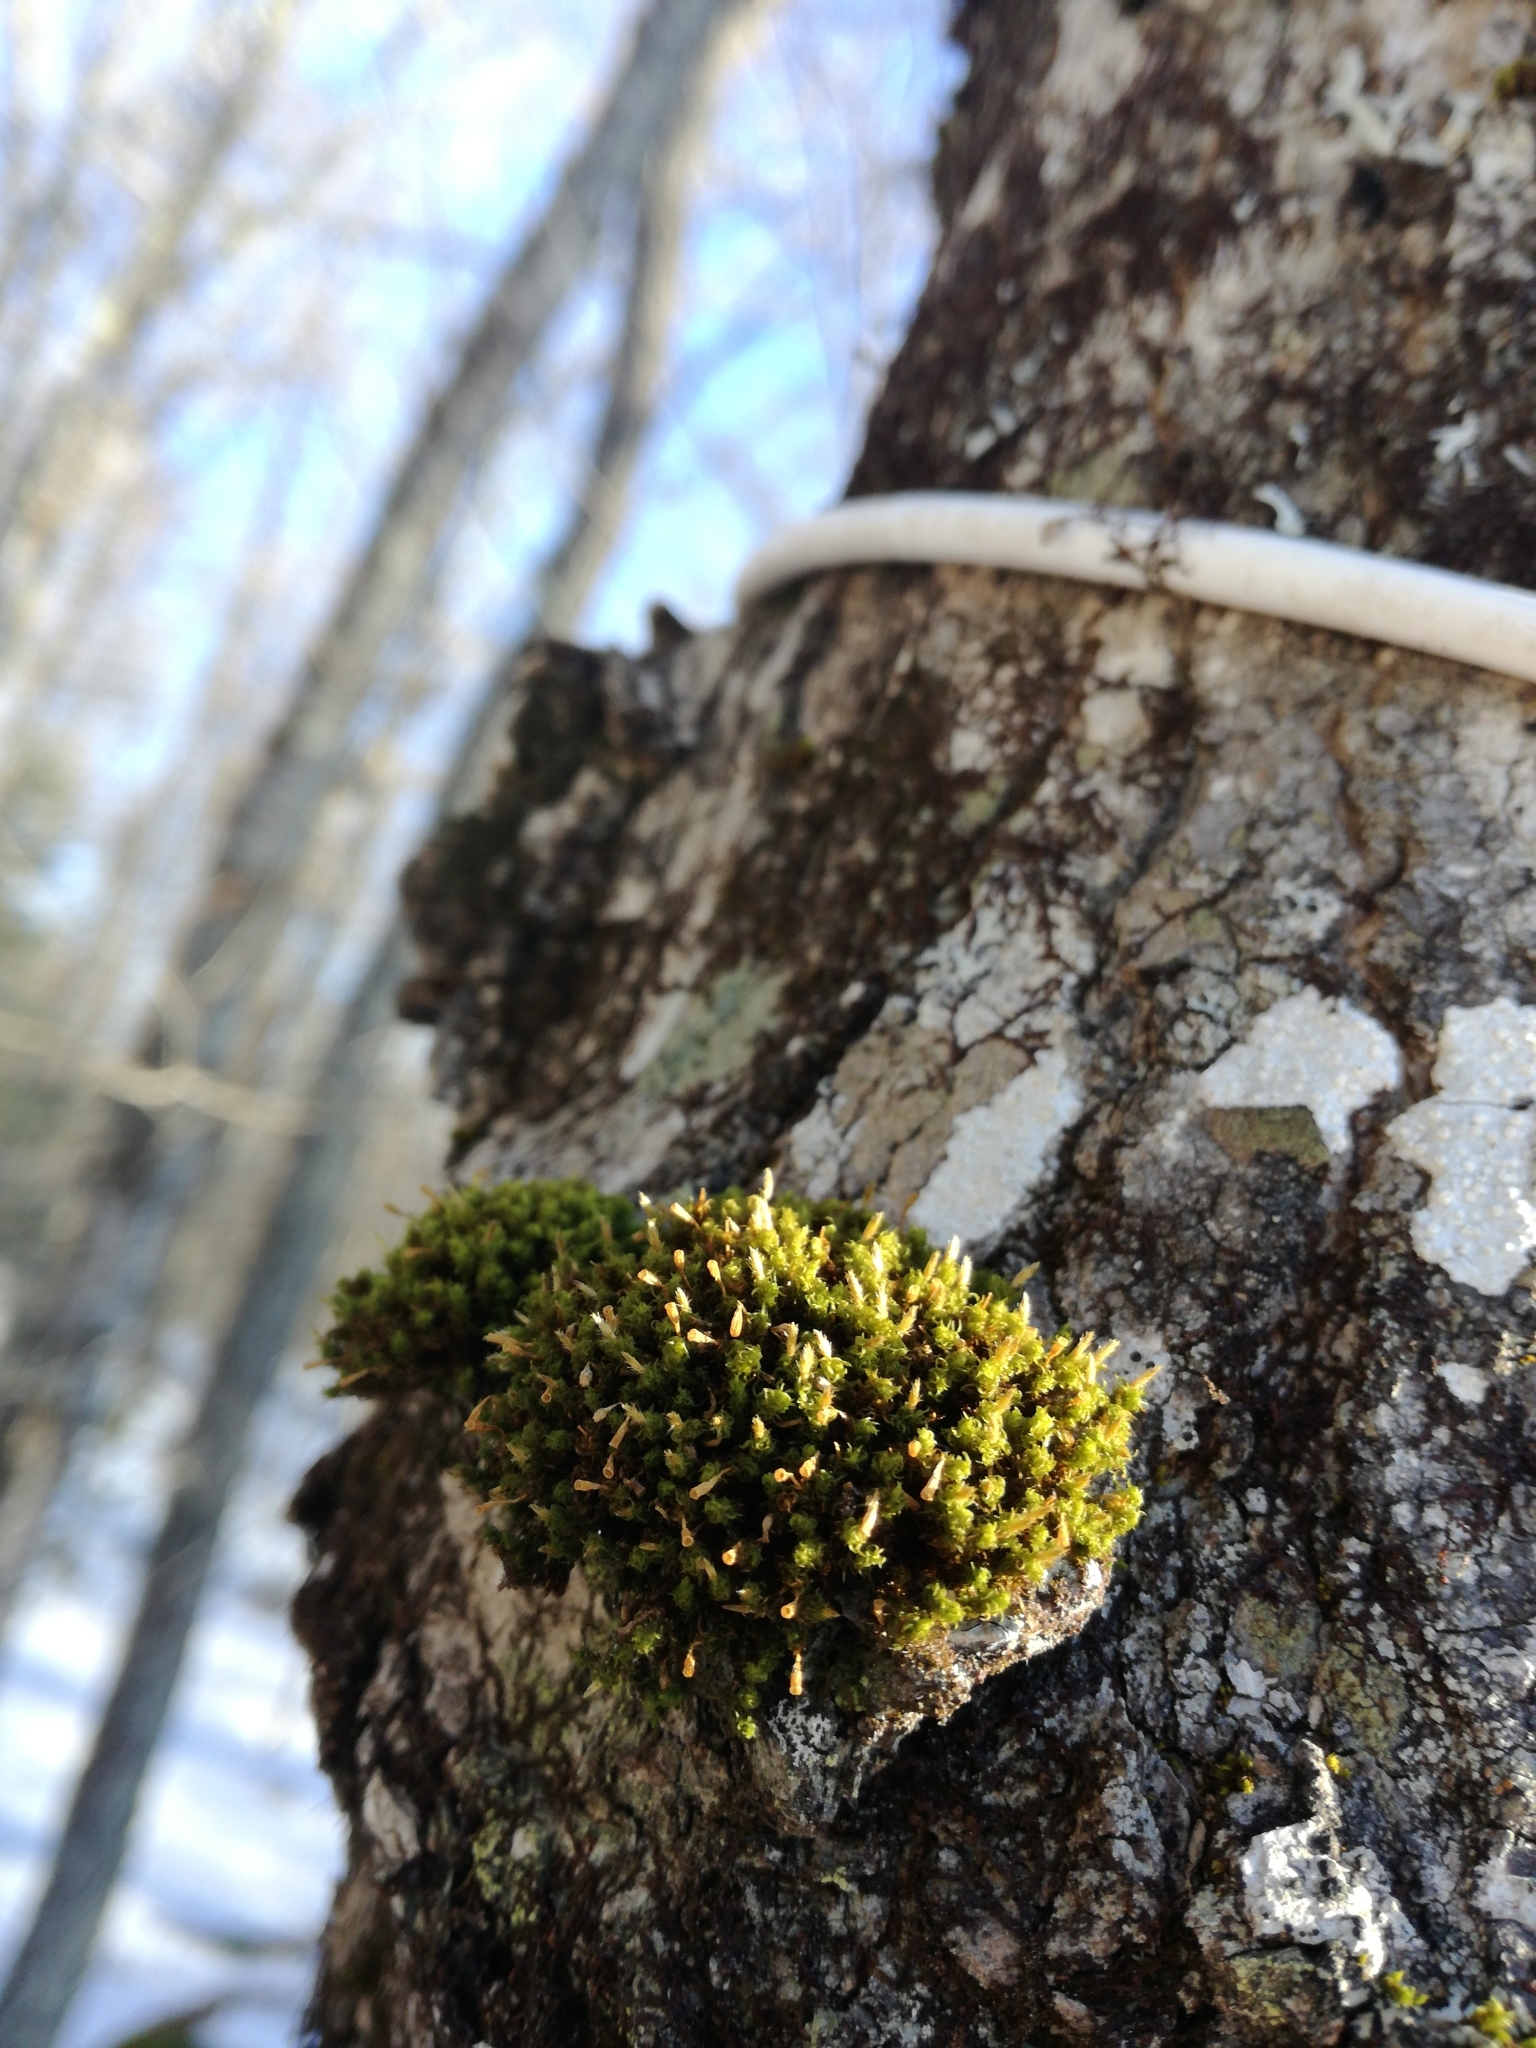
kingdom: Plantae
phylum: Bryophyta
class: Bryopsida
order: Orthotrichales
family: Orthotrichaceae
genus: Ulota
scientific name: Ulota crispa
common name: Crisped pincushion moss
